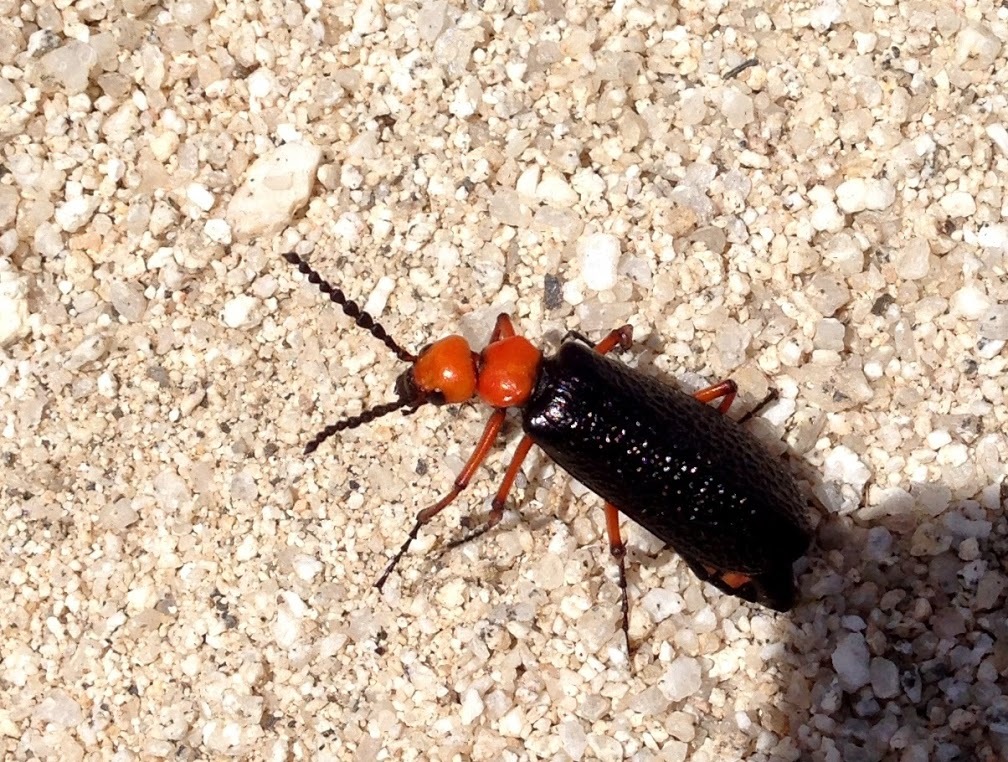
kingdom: Animalia
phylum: Arthropoda
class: Insecta
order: Coleoptera
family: Meloidae
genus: Lytta
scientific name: Lytta magister
